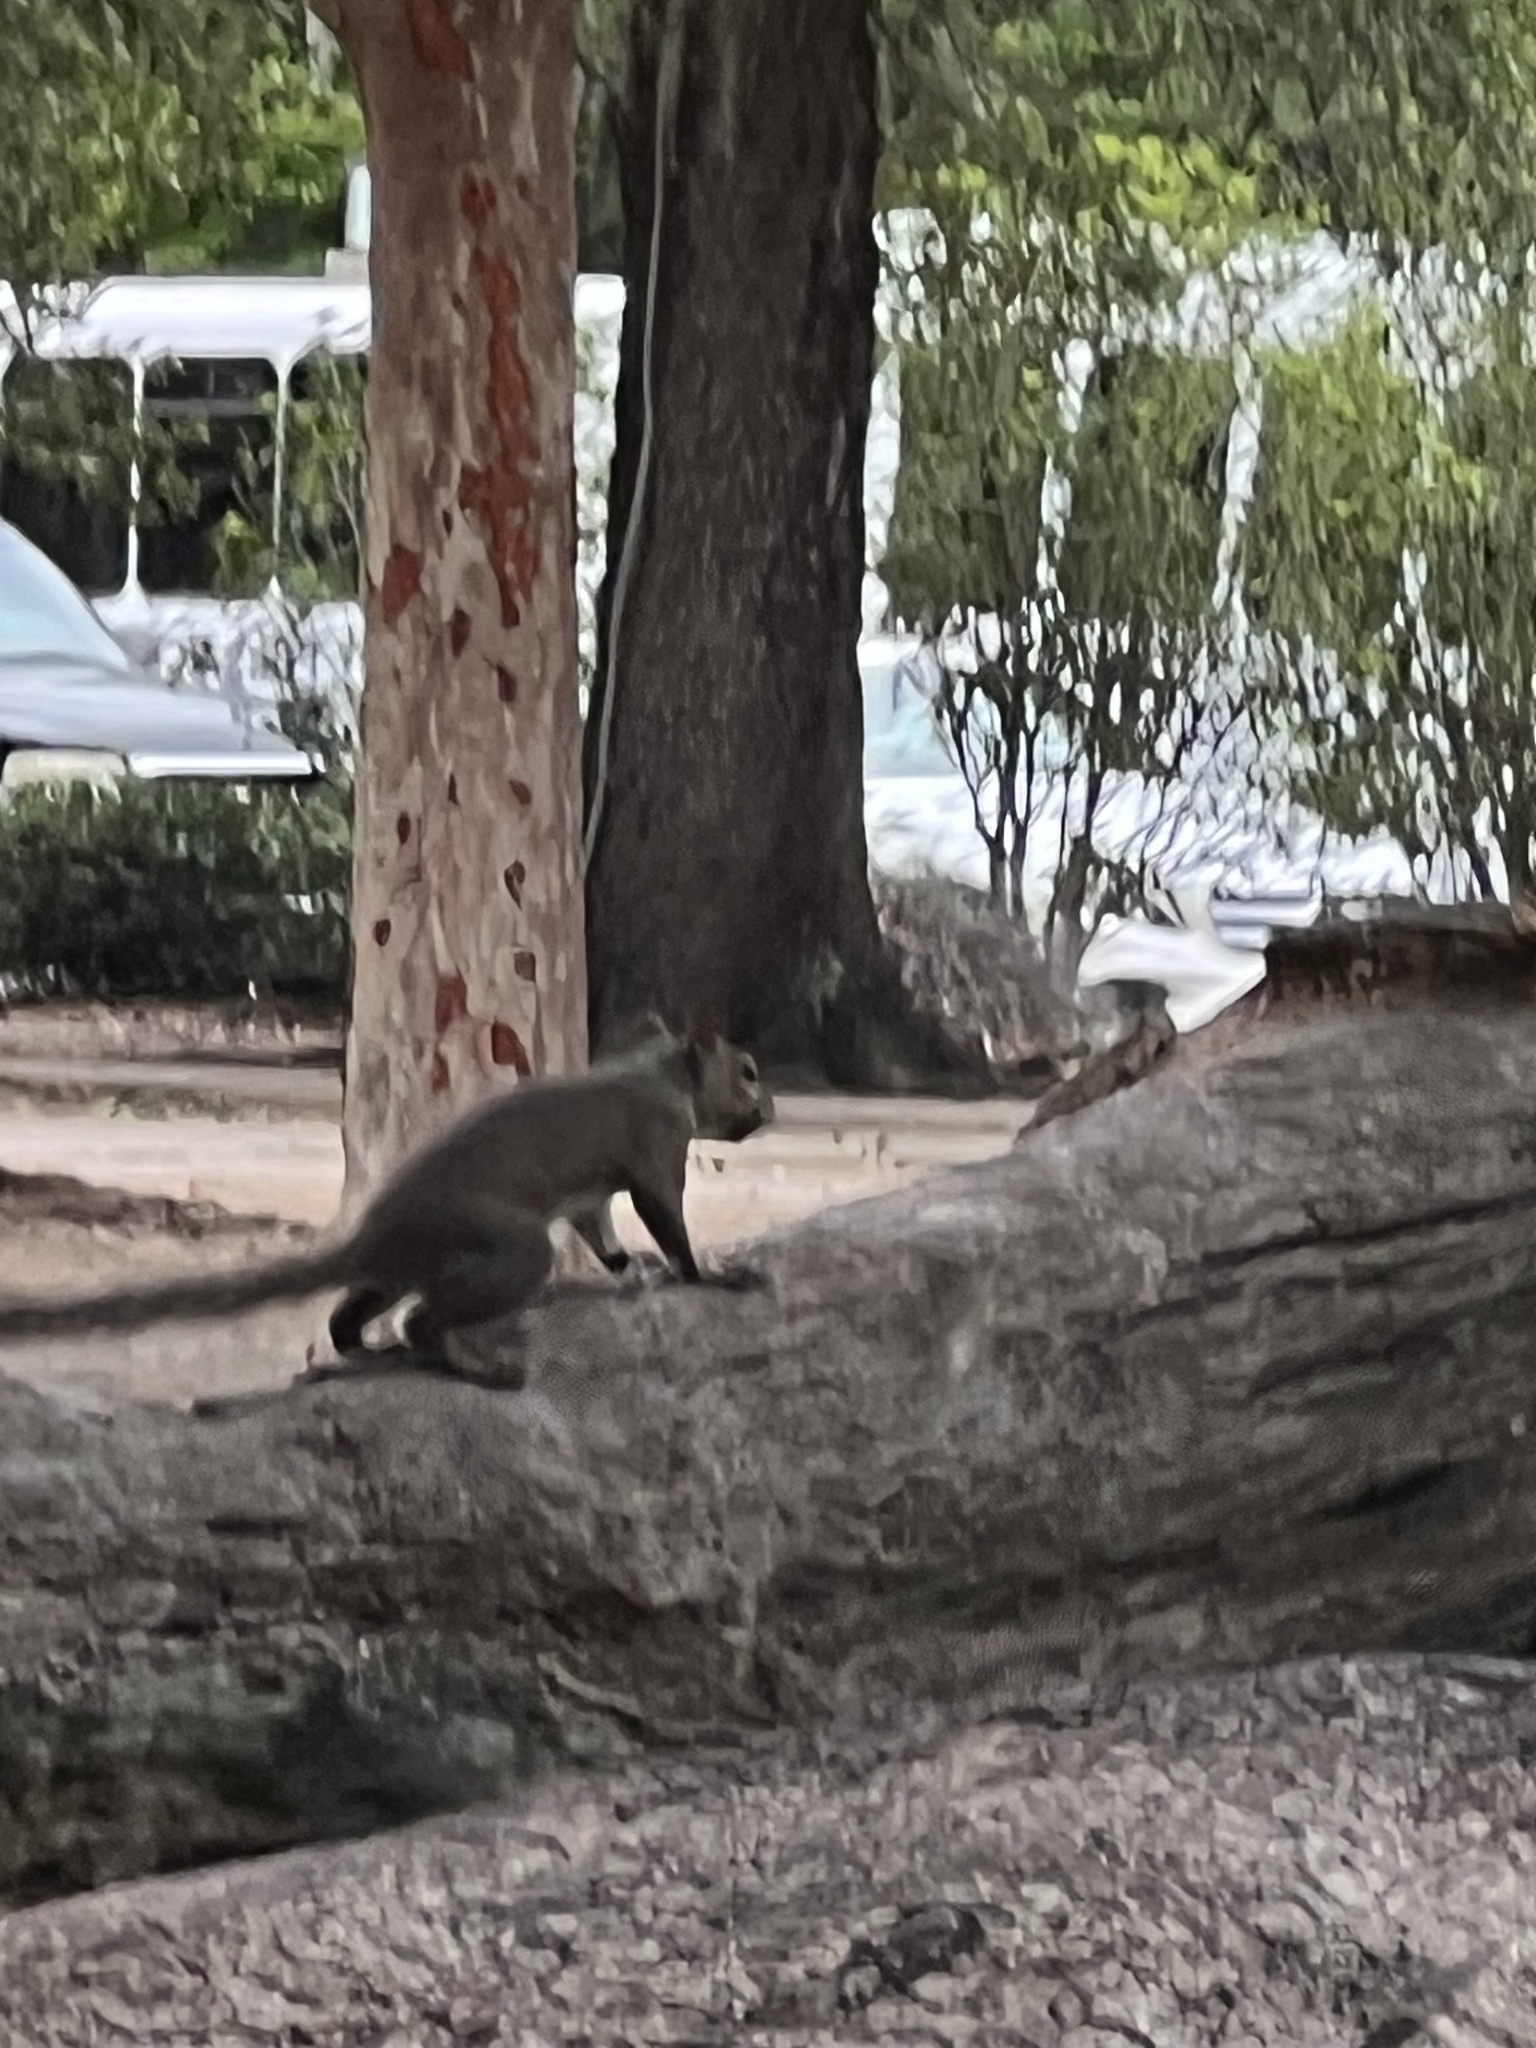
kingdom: Animalia
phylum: Chordata
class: Mammalia
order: Rodentia
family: Sciuridae
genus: Sciurus
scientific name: Sciurus carolinensis
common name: Eastern gray squirrel
